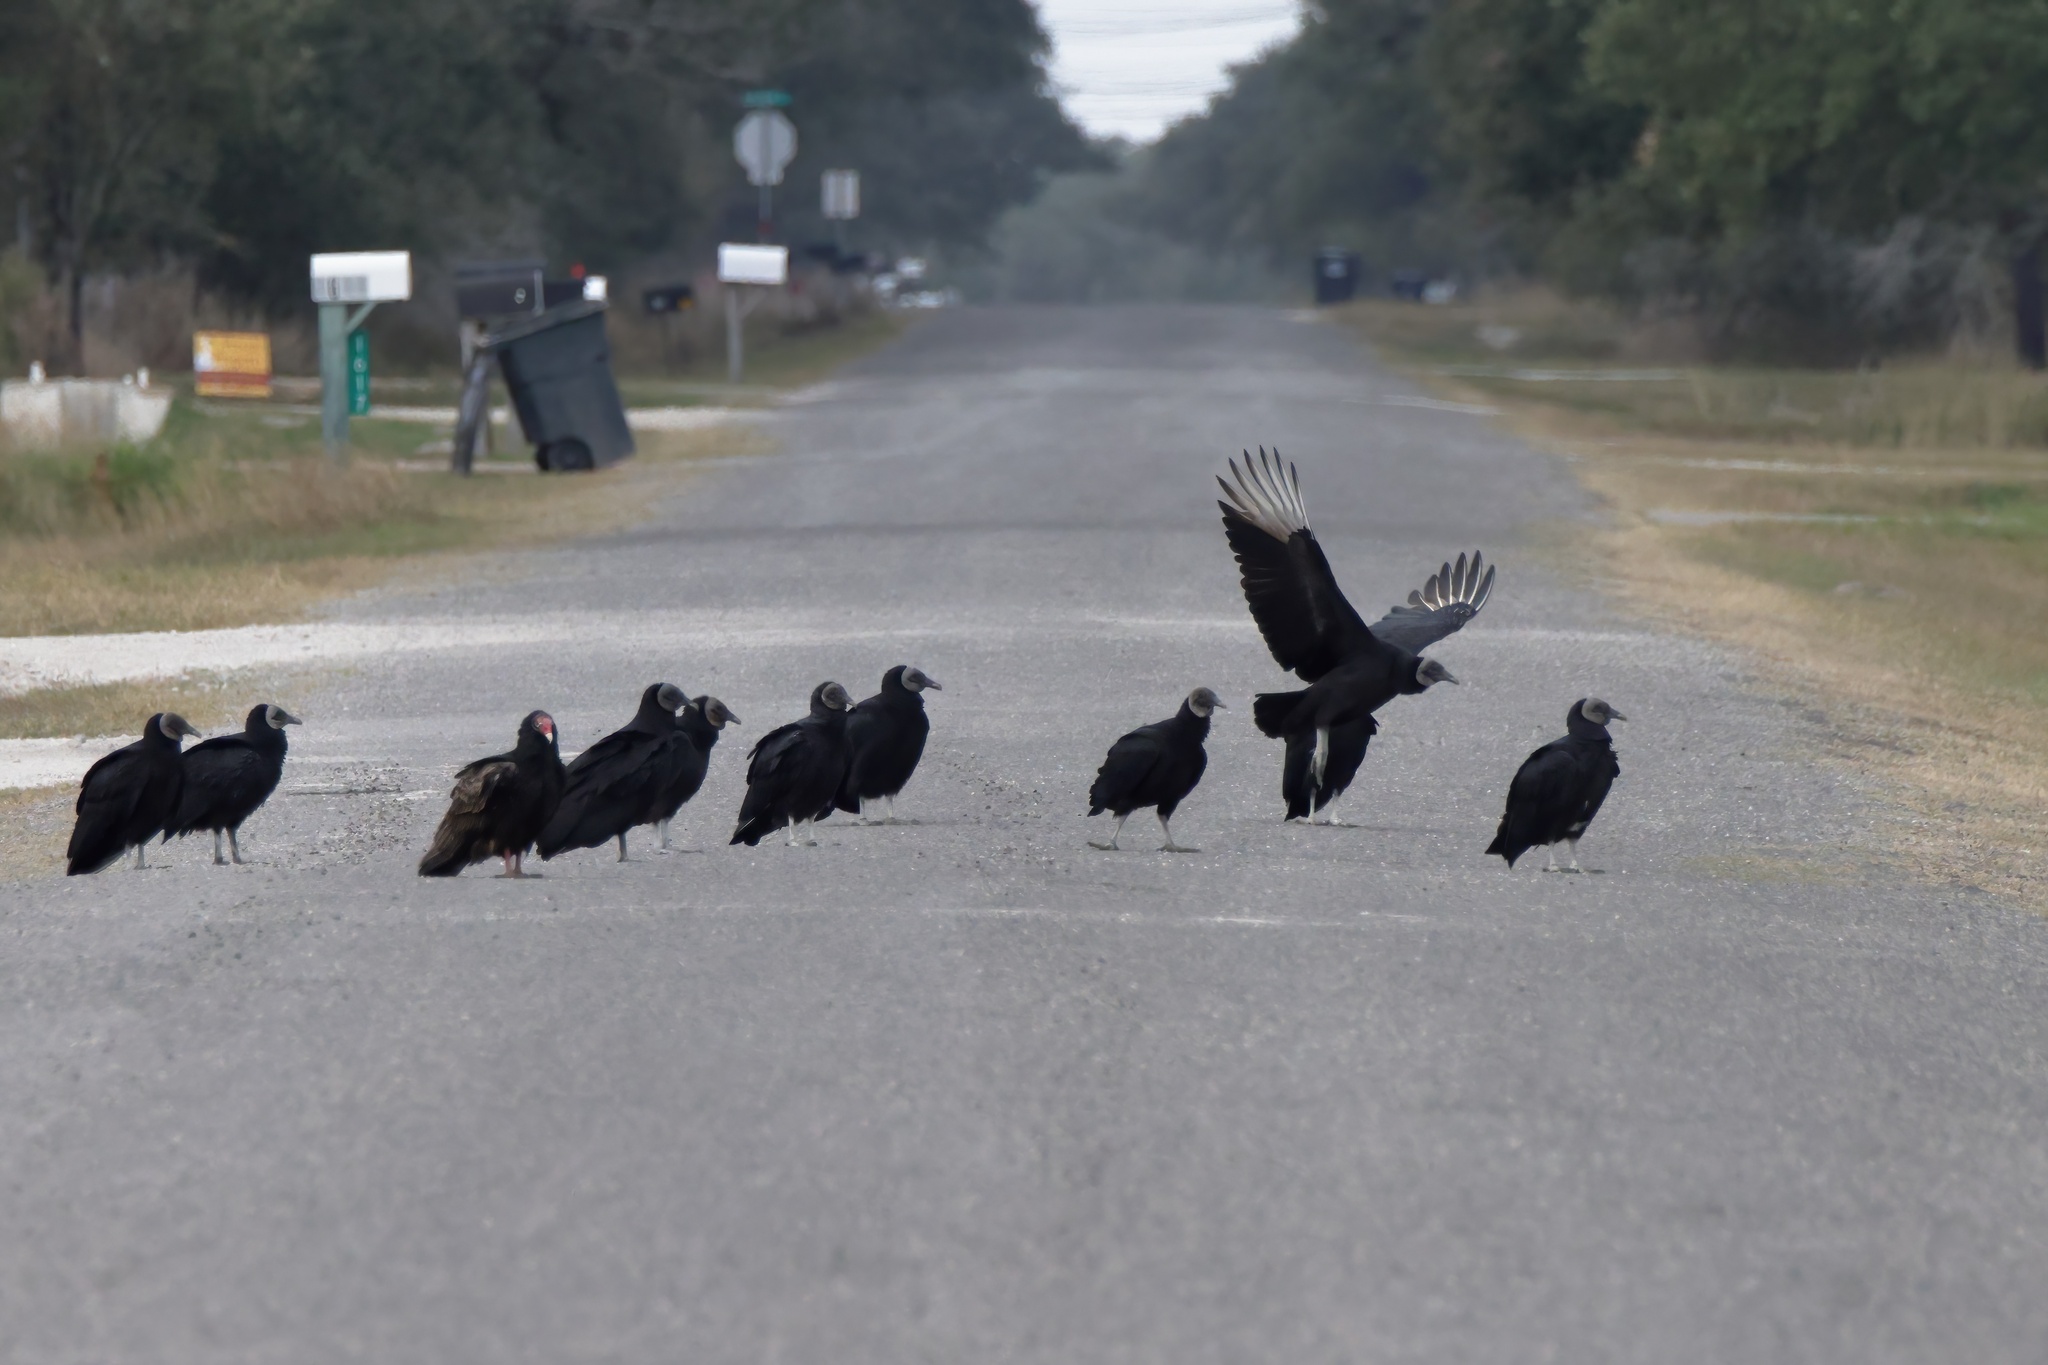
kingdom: Animalia
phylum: Chordata
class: Aves
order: Accipitriformes
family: Cathartidae
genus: Coragyps
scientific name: Coragyps atratus
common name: Black vulture
